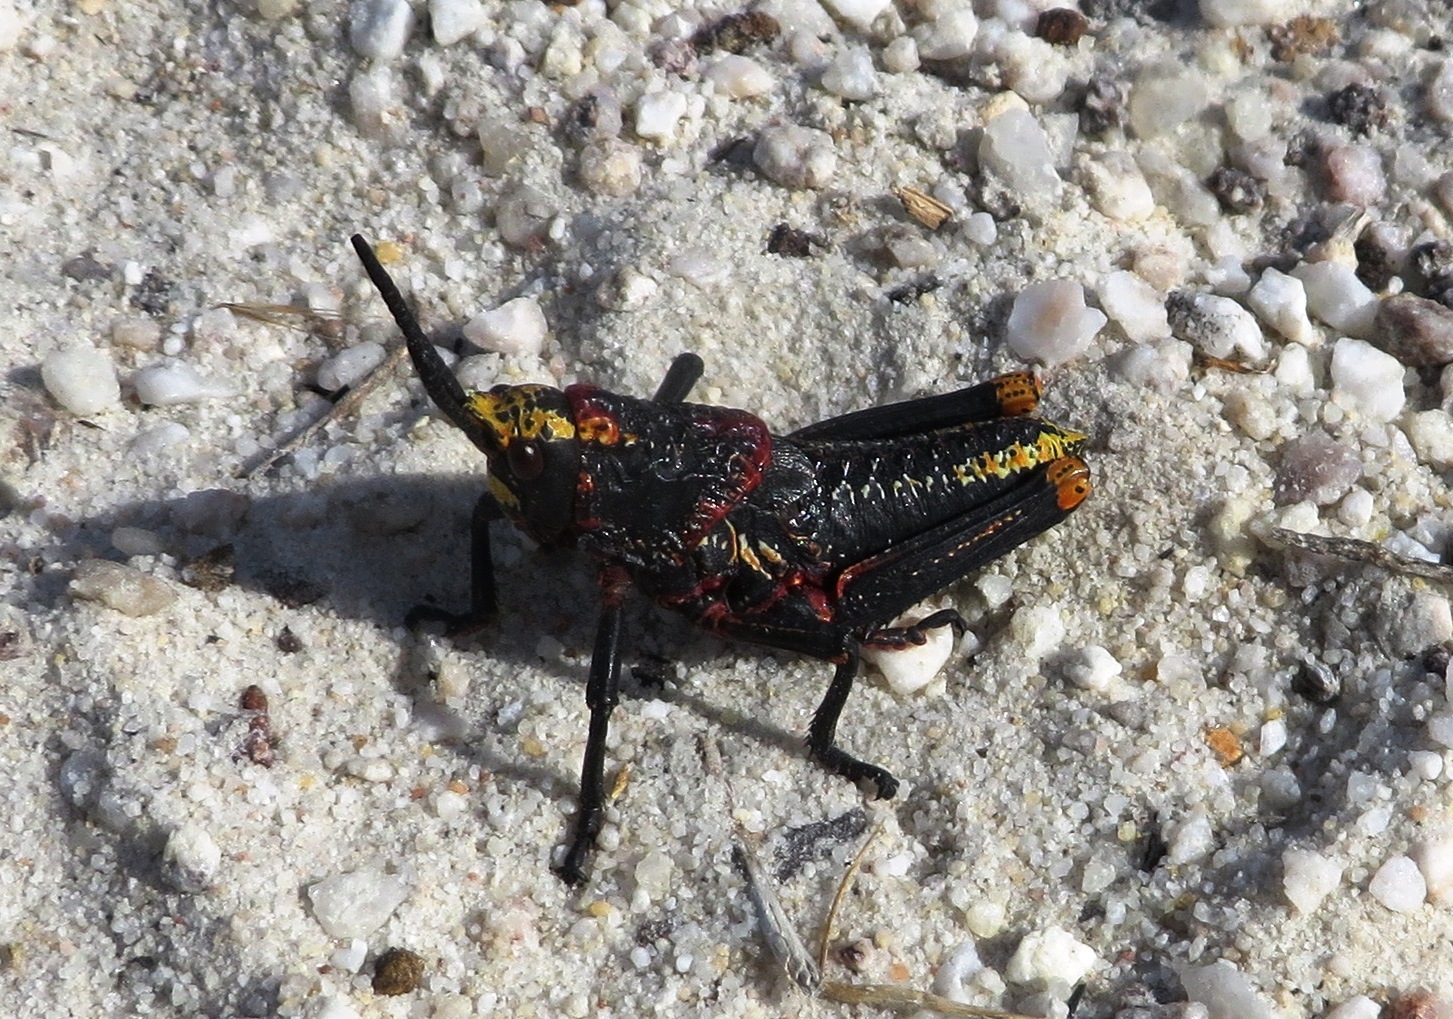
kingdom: Animalia
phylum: Arthropoda
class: Insecta
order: Orthoptera
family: Pyrgomorphidae
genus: Dictyophorus
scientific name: Dictyophorus spumans
